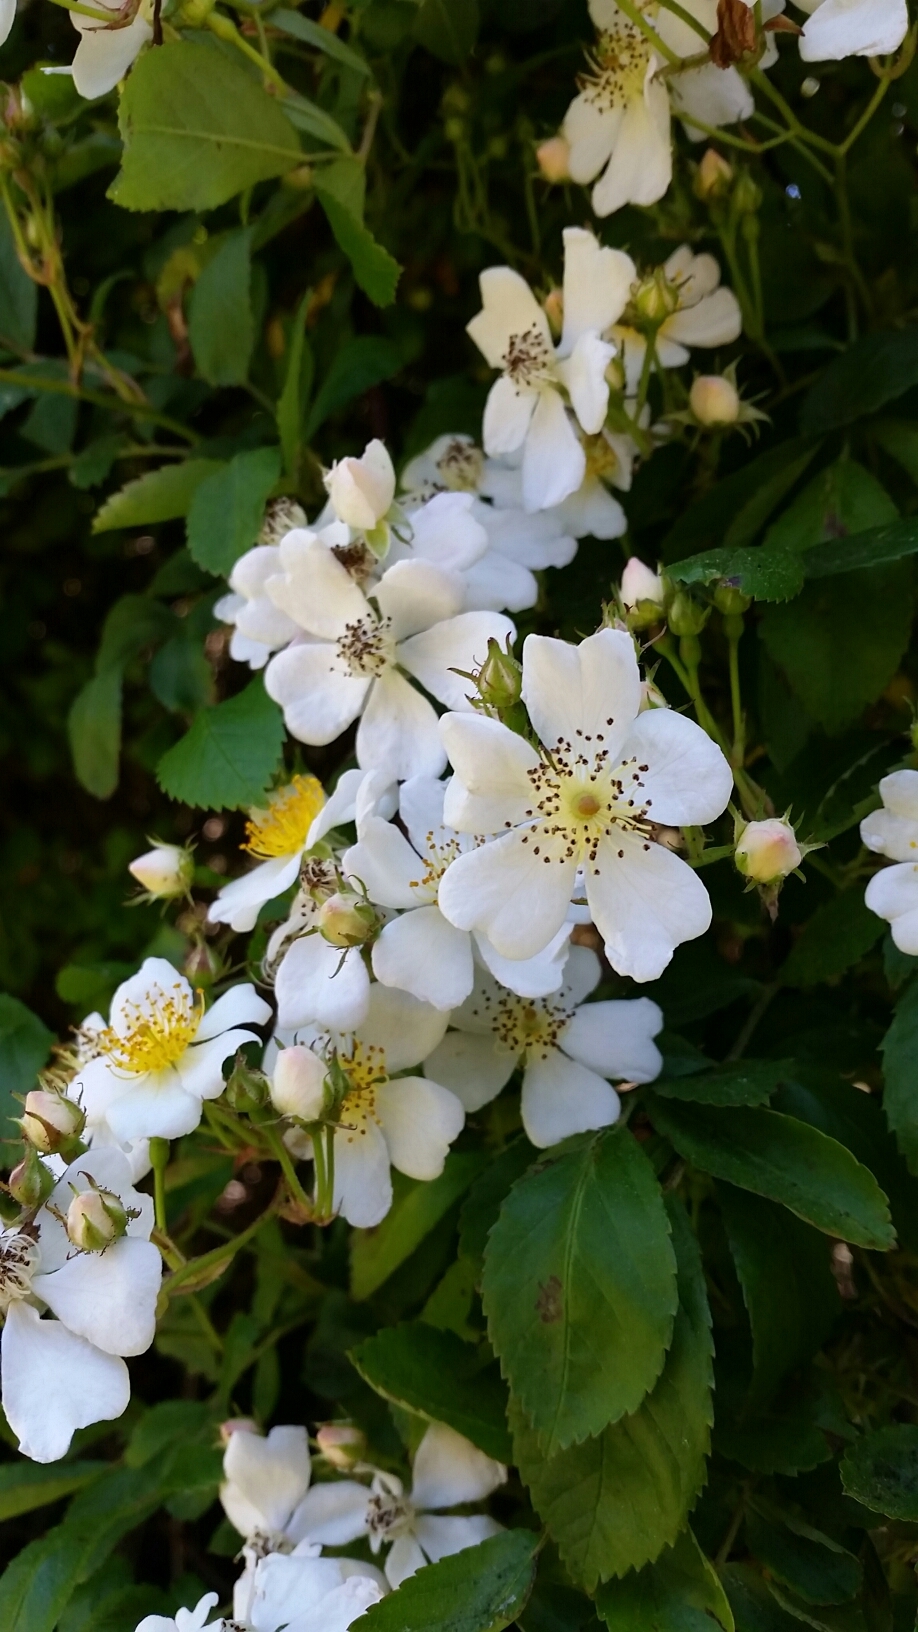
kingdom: Plantae
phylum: Tracheophyta
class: Magnoliopsida
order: Rosales
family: Rosaceae
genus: Rosa
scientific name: Rosa multiflora
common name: Multiflora rose
